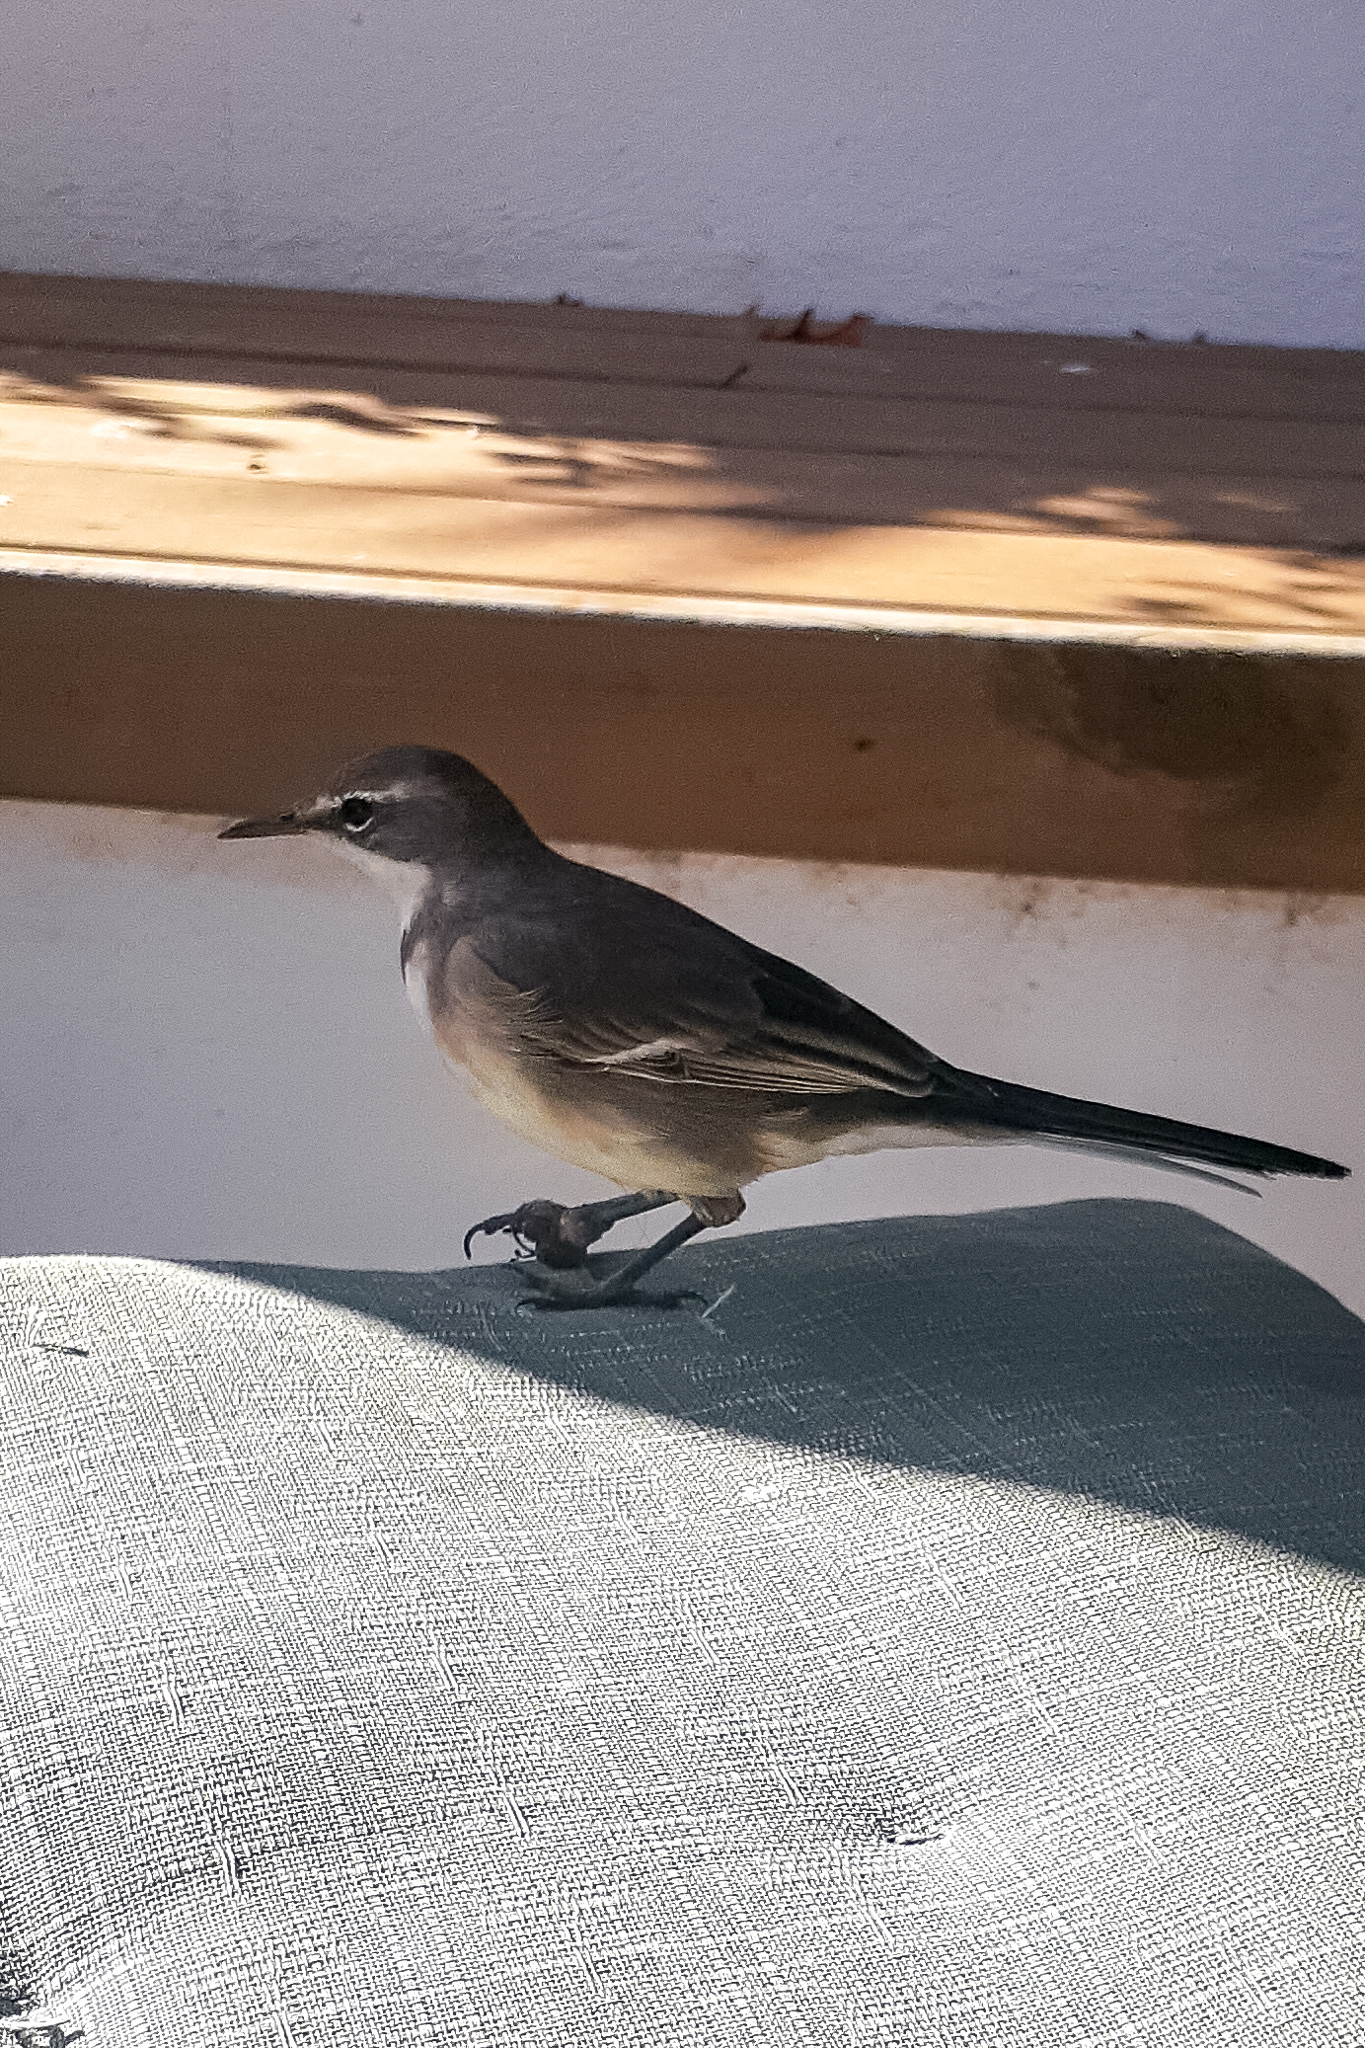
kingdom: Animalia
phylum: Chordata
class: Aves
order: Passeriformes
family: Motacillidae
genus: Motacilla
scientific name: Motacilla capensis
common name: Cape wagtail
